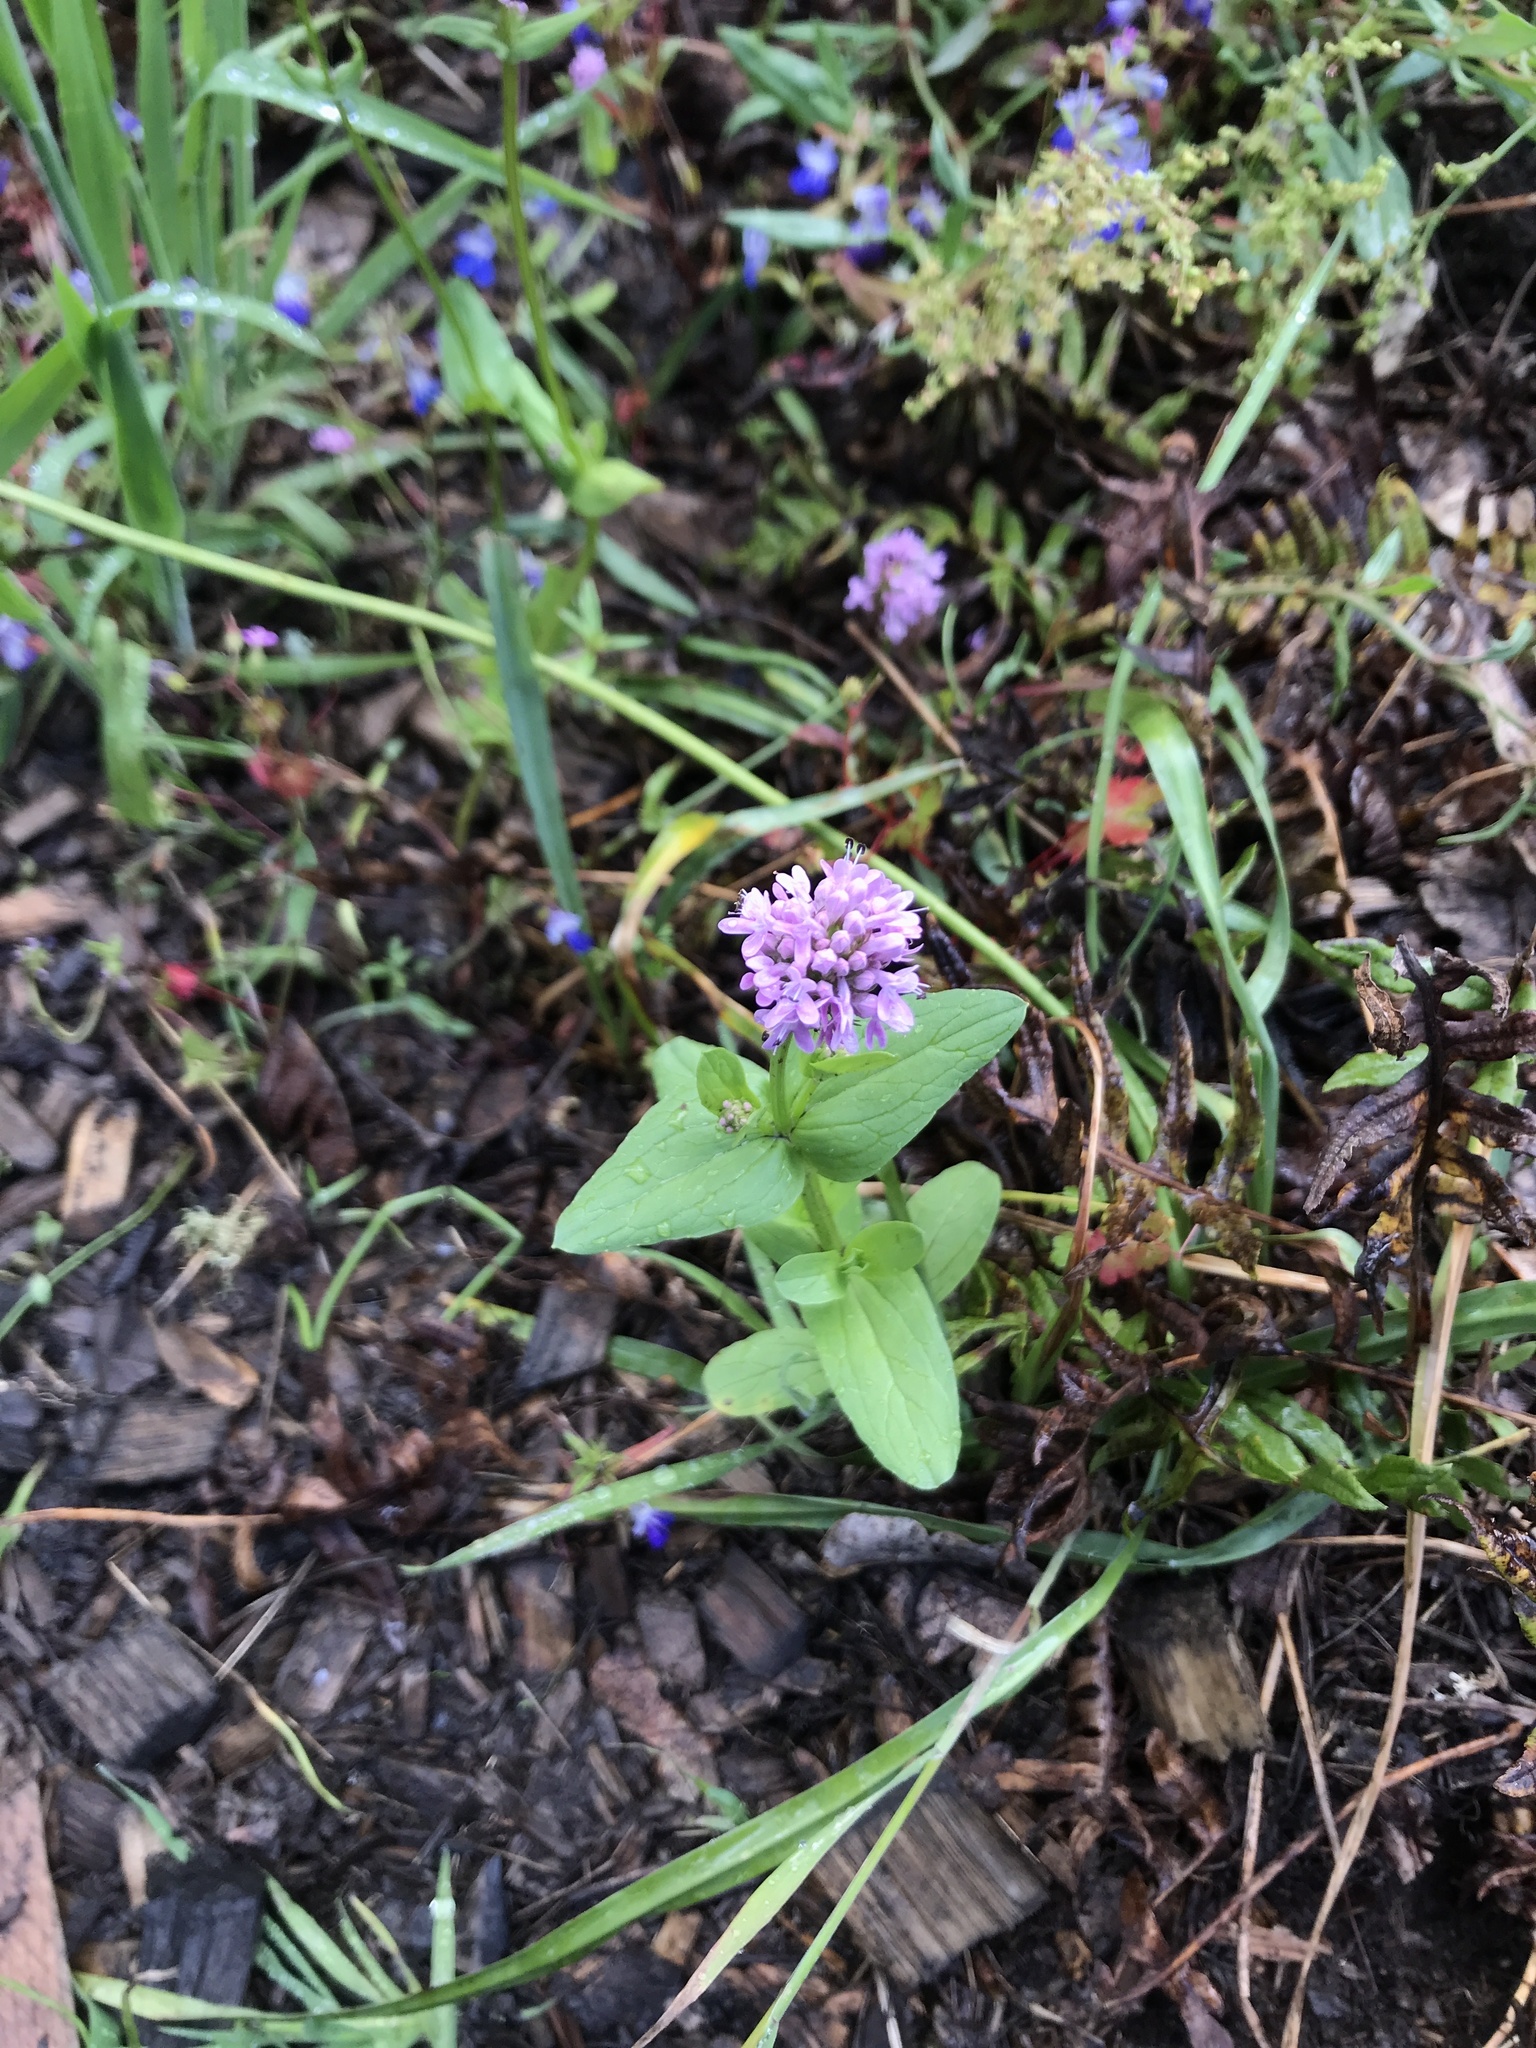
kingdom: Plantae
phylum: Tracheophyta
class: Magnoliopsida
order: Dipsacales
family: Caprifoliaceae
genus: Plectritis
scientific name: Plectritis congesta
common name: Pink plectritis
